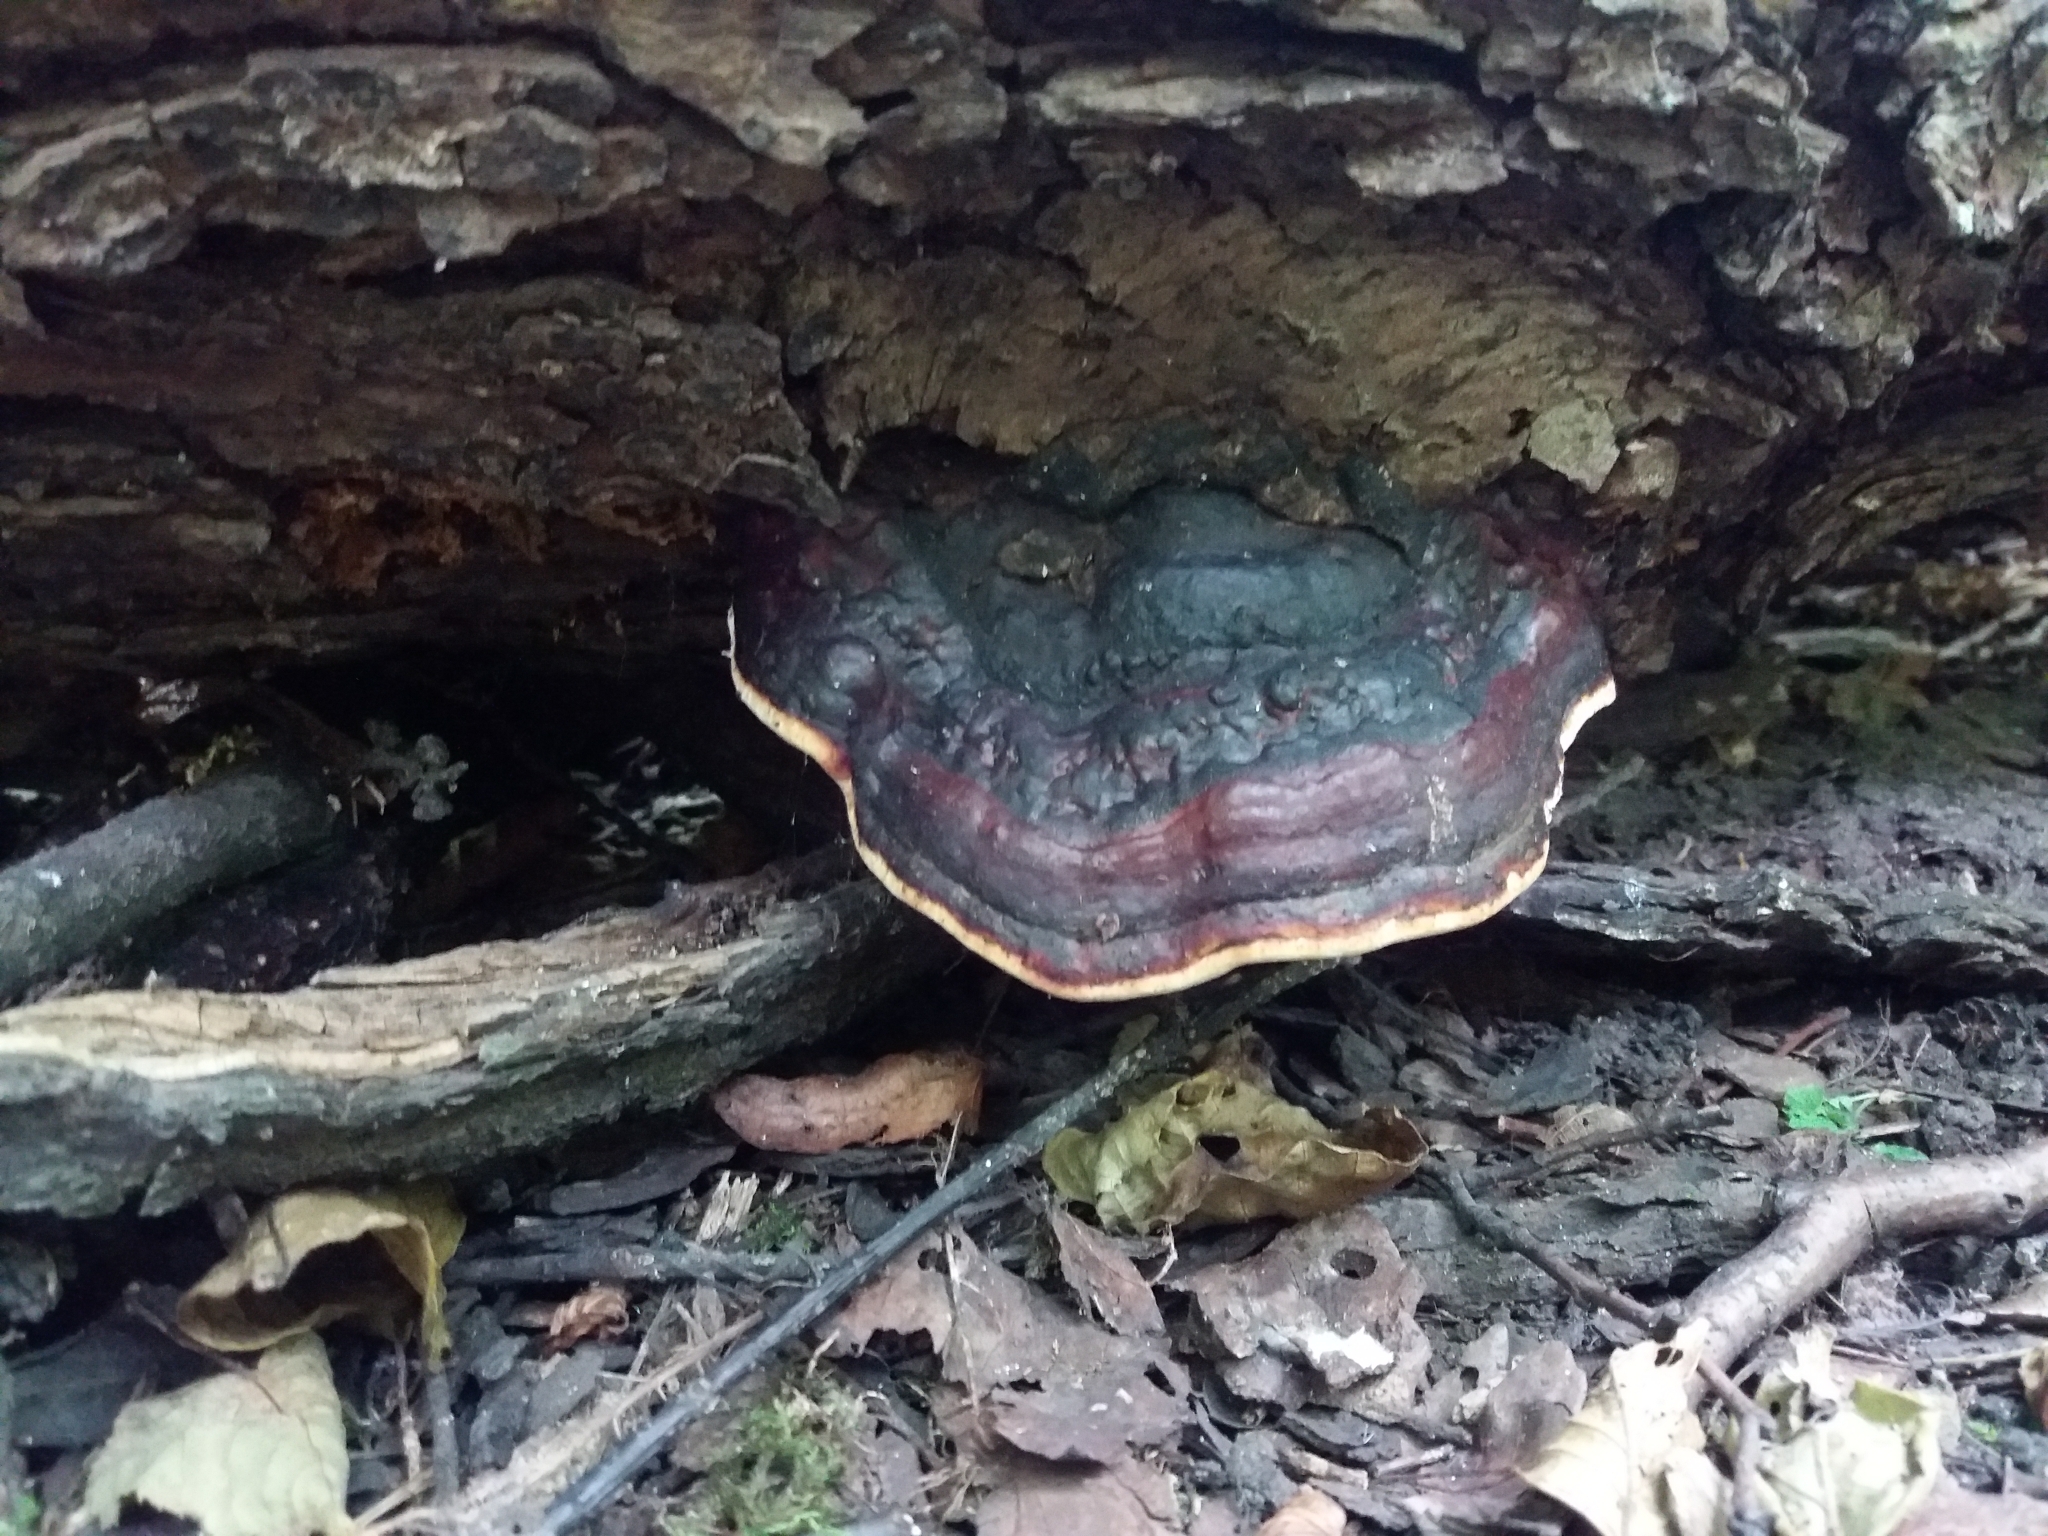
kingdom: Fungi
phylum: Basidiomycota
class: Agaricomycetes
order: Polyporales
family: Fomitopsidaceae
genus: Fomitopsis
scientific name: Fomitopsis pinicola
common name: Red-belted bracket
